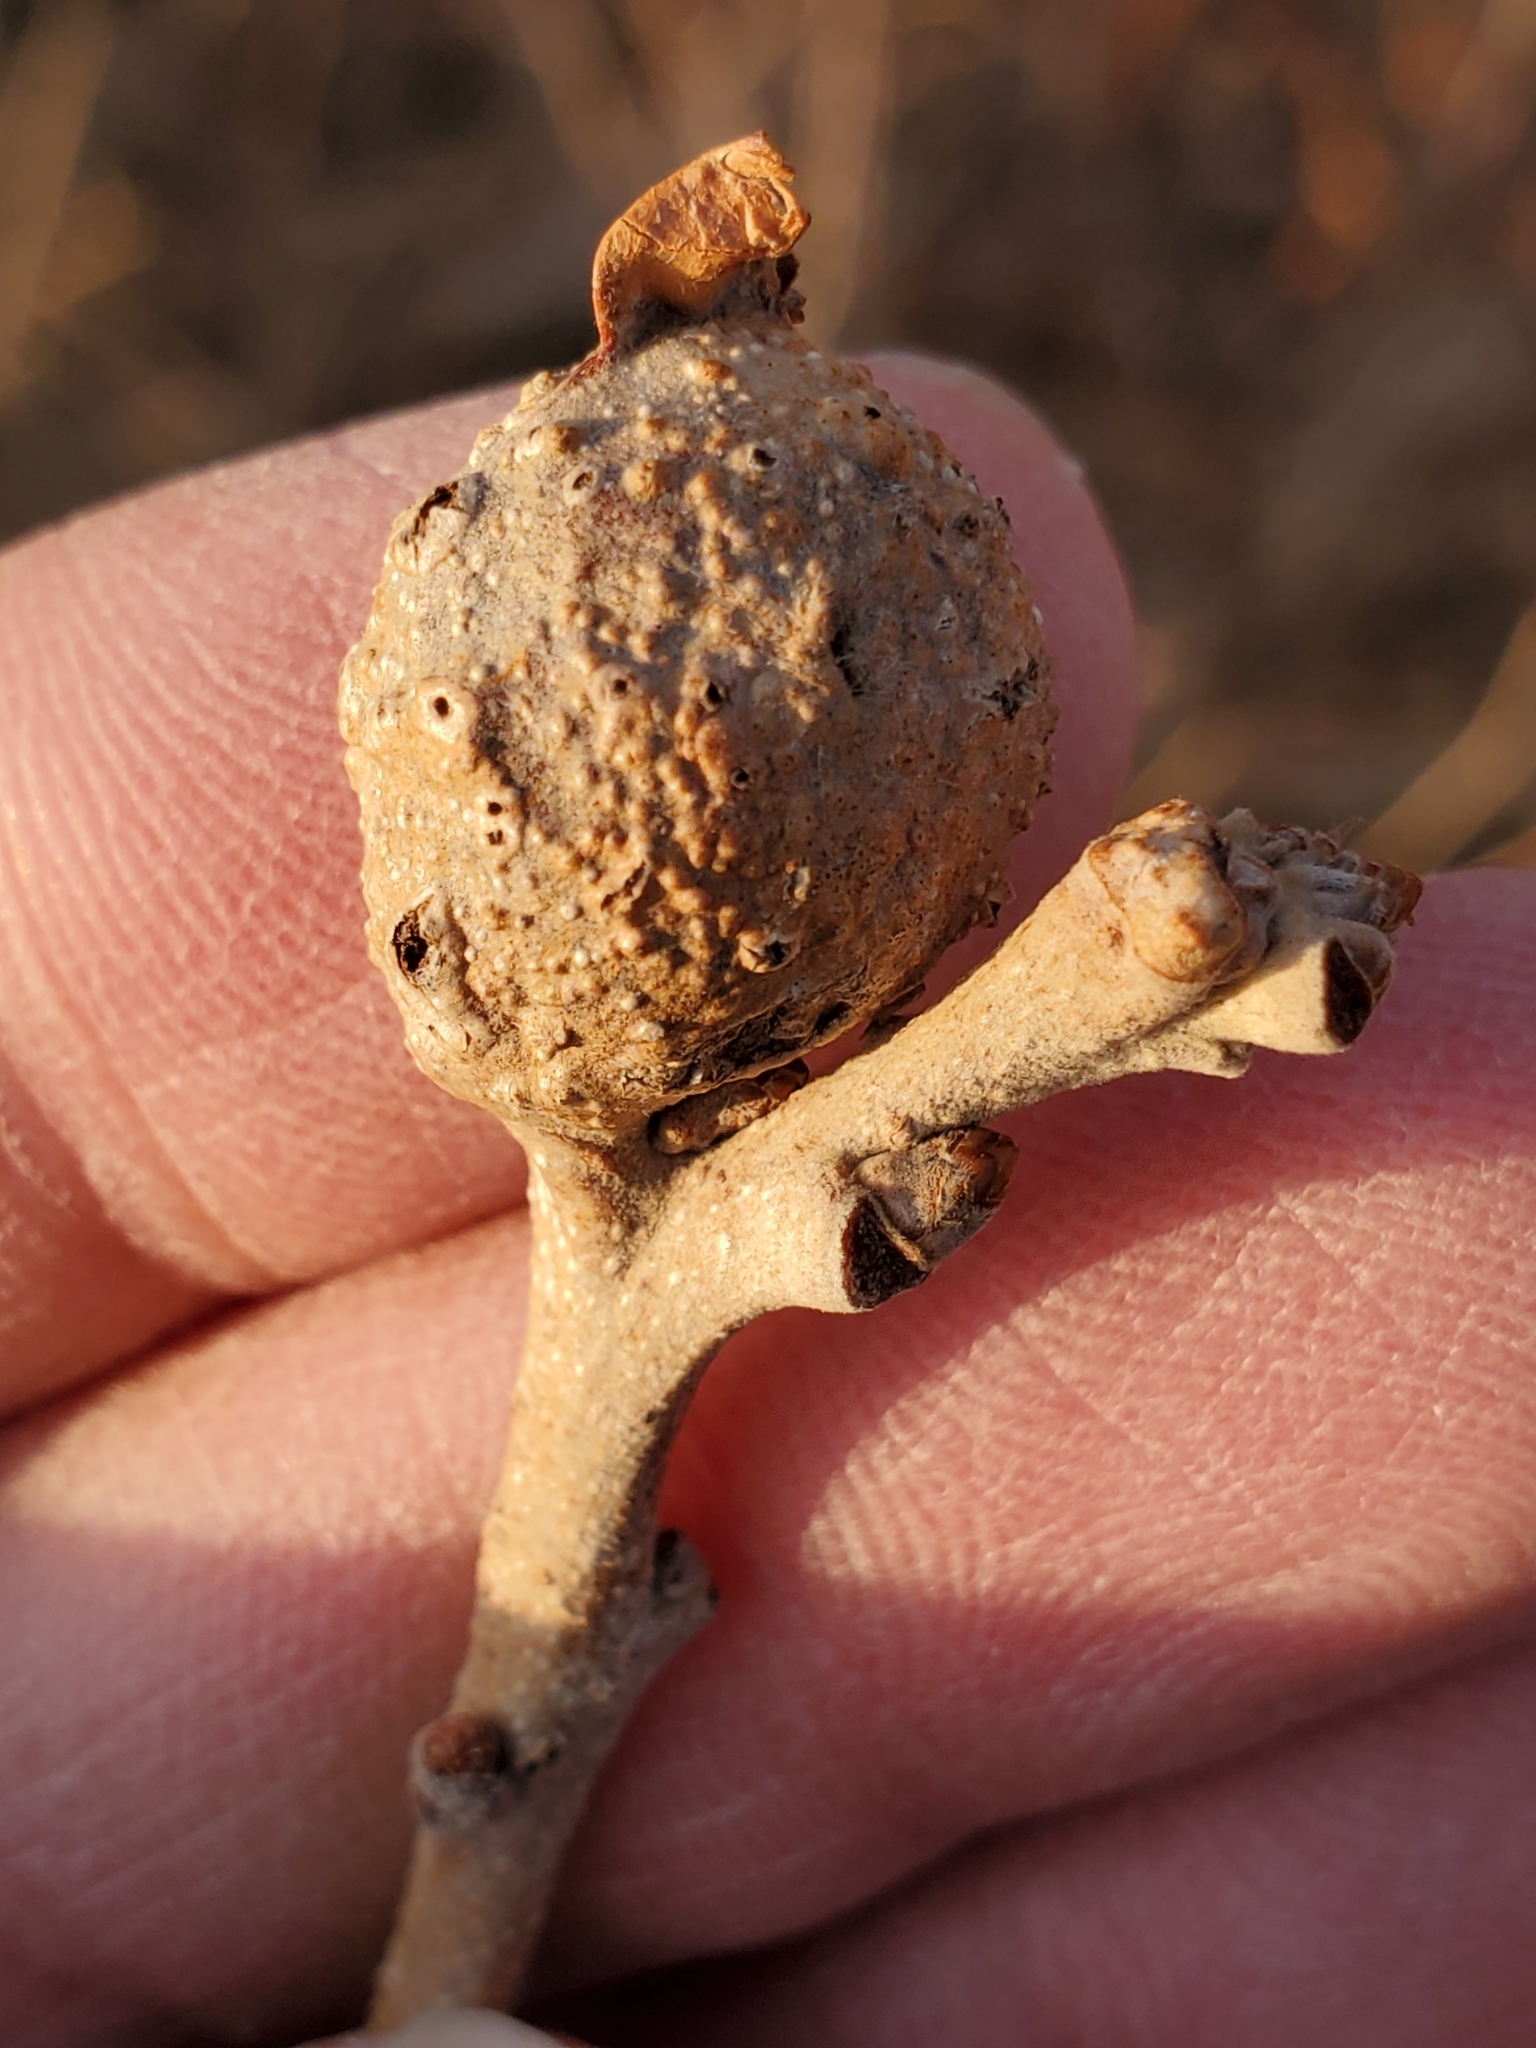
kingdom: Animalia
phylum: Arthropoda
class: Insecta
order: Hymenoptera
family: Cynipidae
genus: Andricus
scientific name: Andricus
